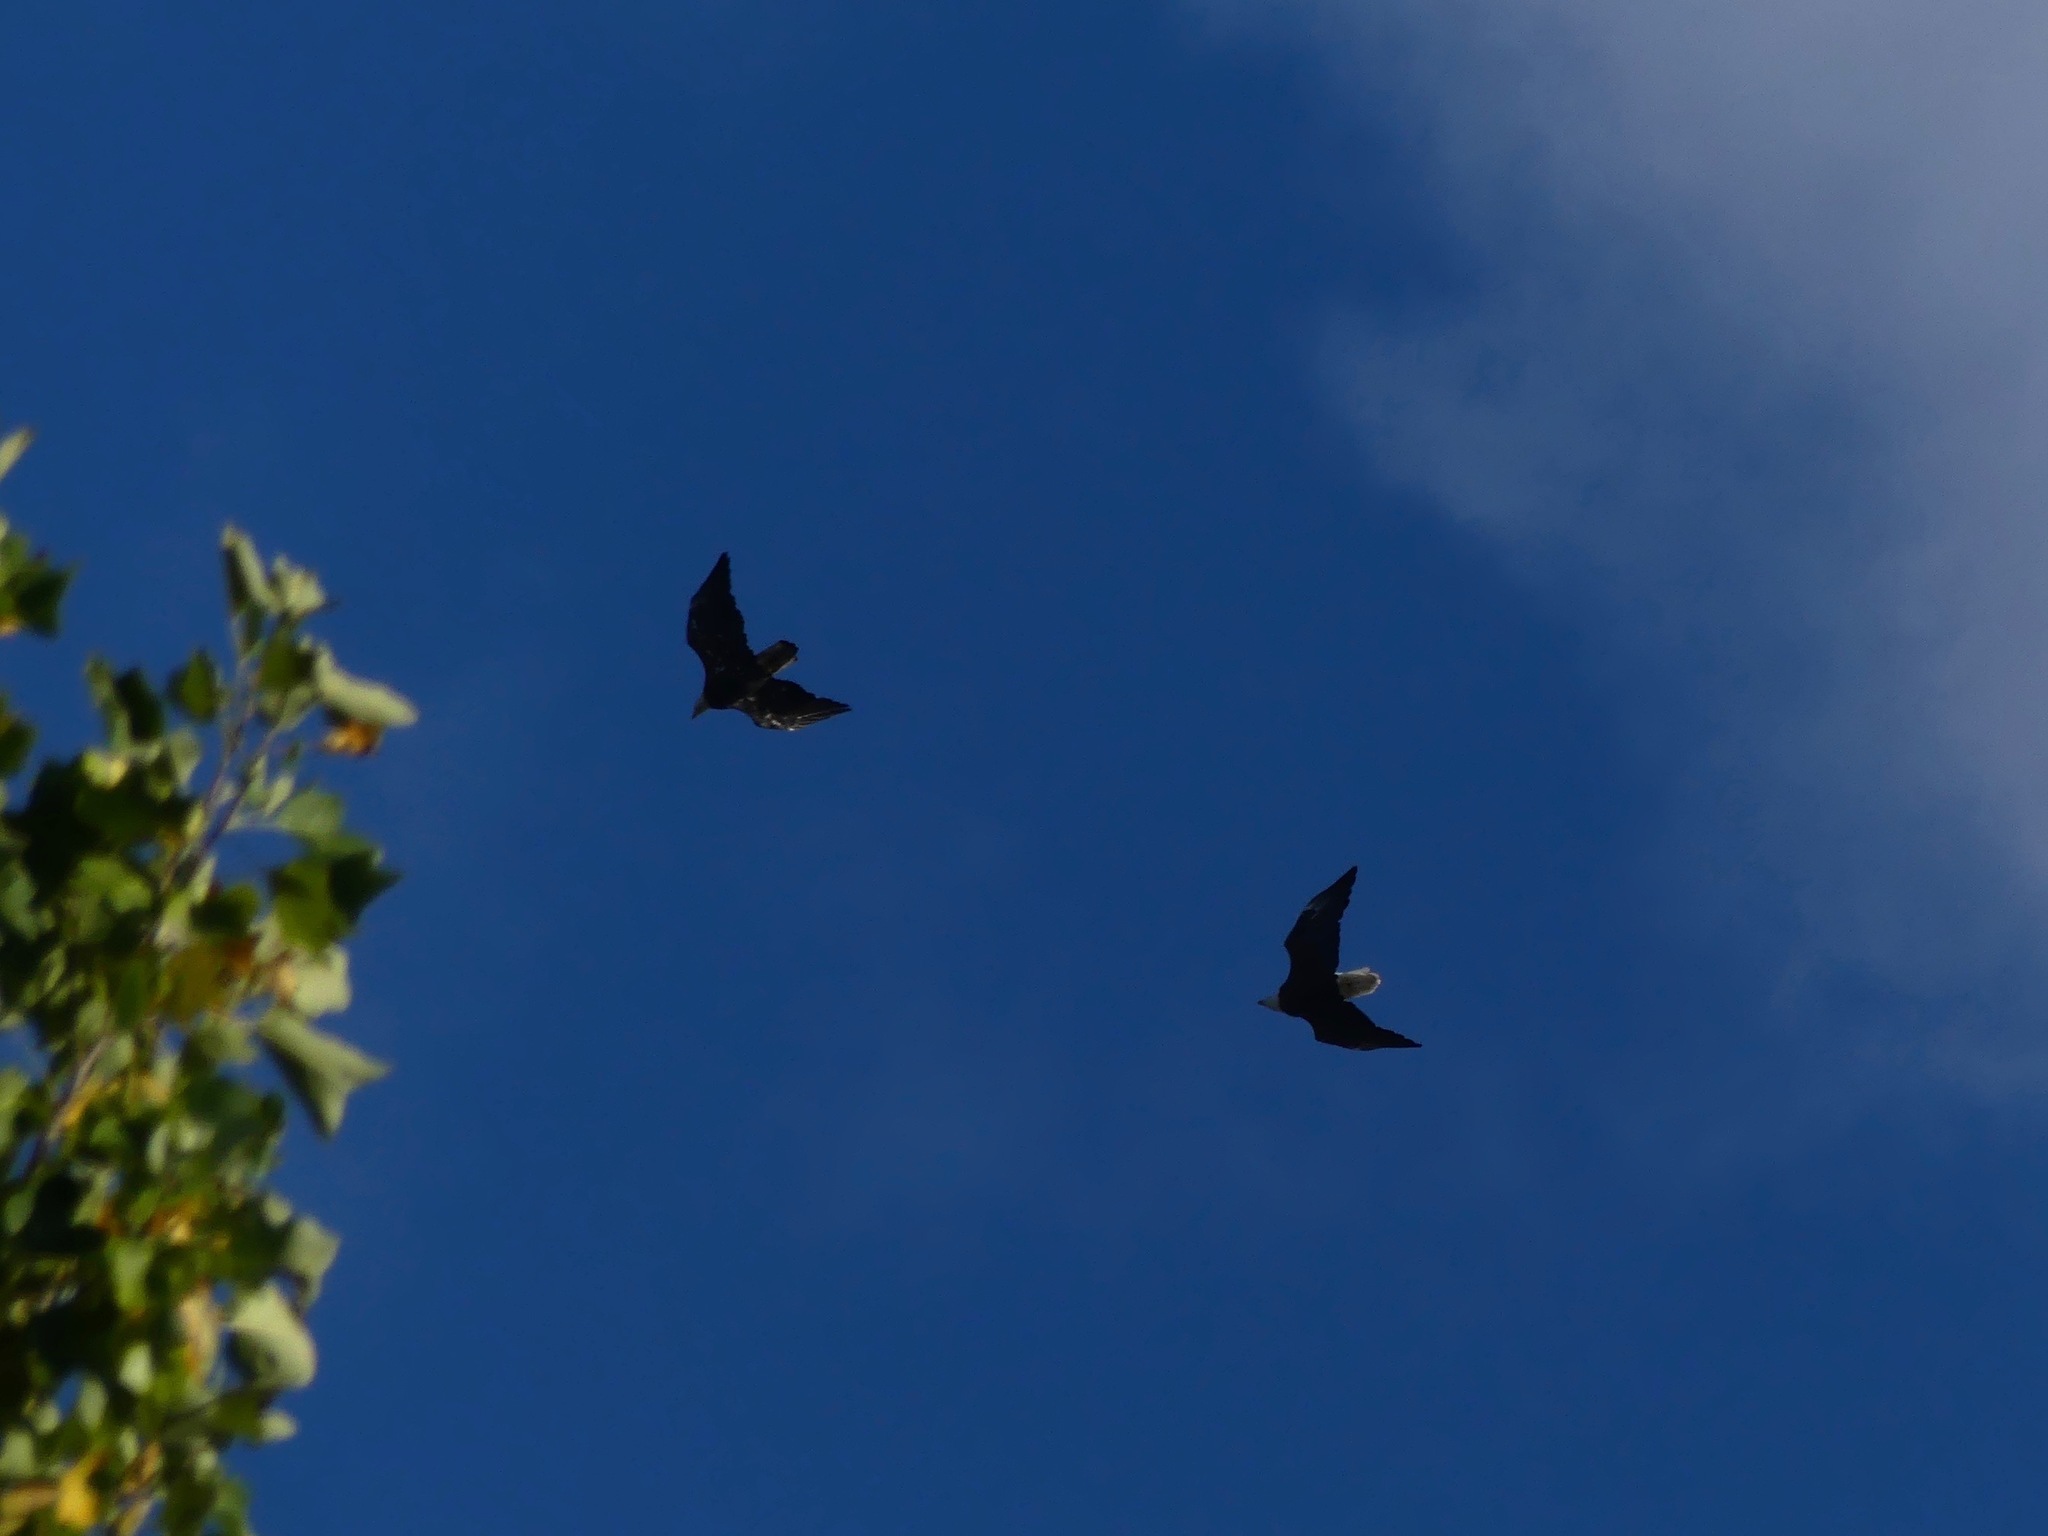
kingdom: Animalia
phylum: Chordata
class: Aves
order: Accipitriformes
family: Accipitridae
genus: Haliaeetus
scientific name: Haliaeetus leucocephalus
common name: Bald eagle
